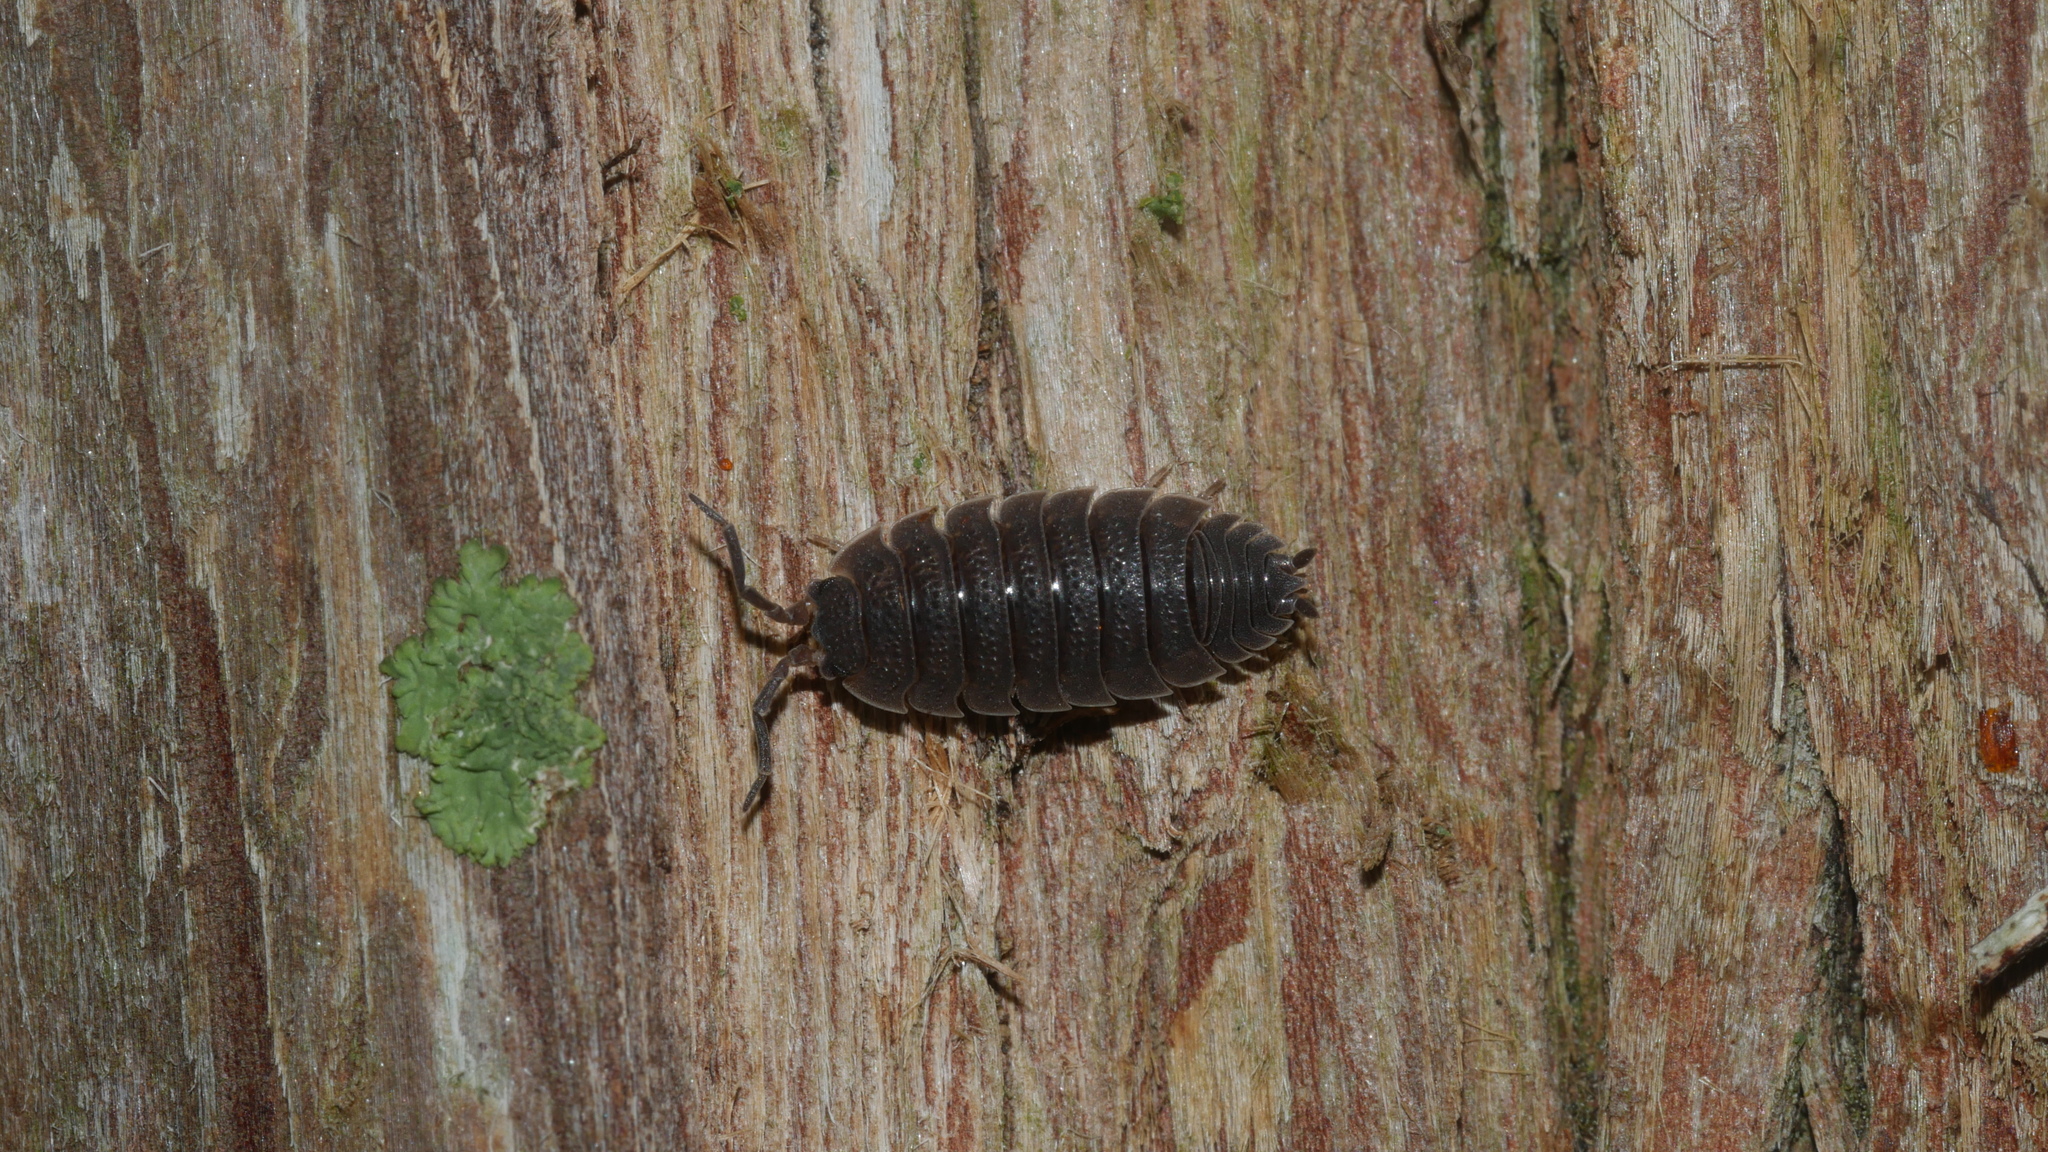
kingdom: Animalia
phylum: Arthropoda
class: Malacostraca
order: Isopoda
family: Porcellionidae
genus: Porcellio
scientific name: Porcellio scaber
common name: Common rough woodlouse
